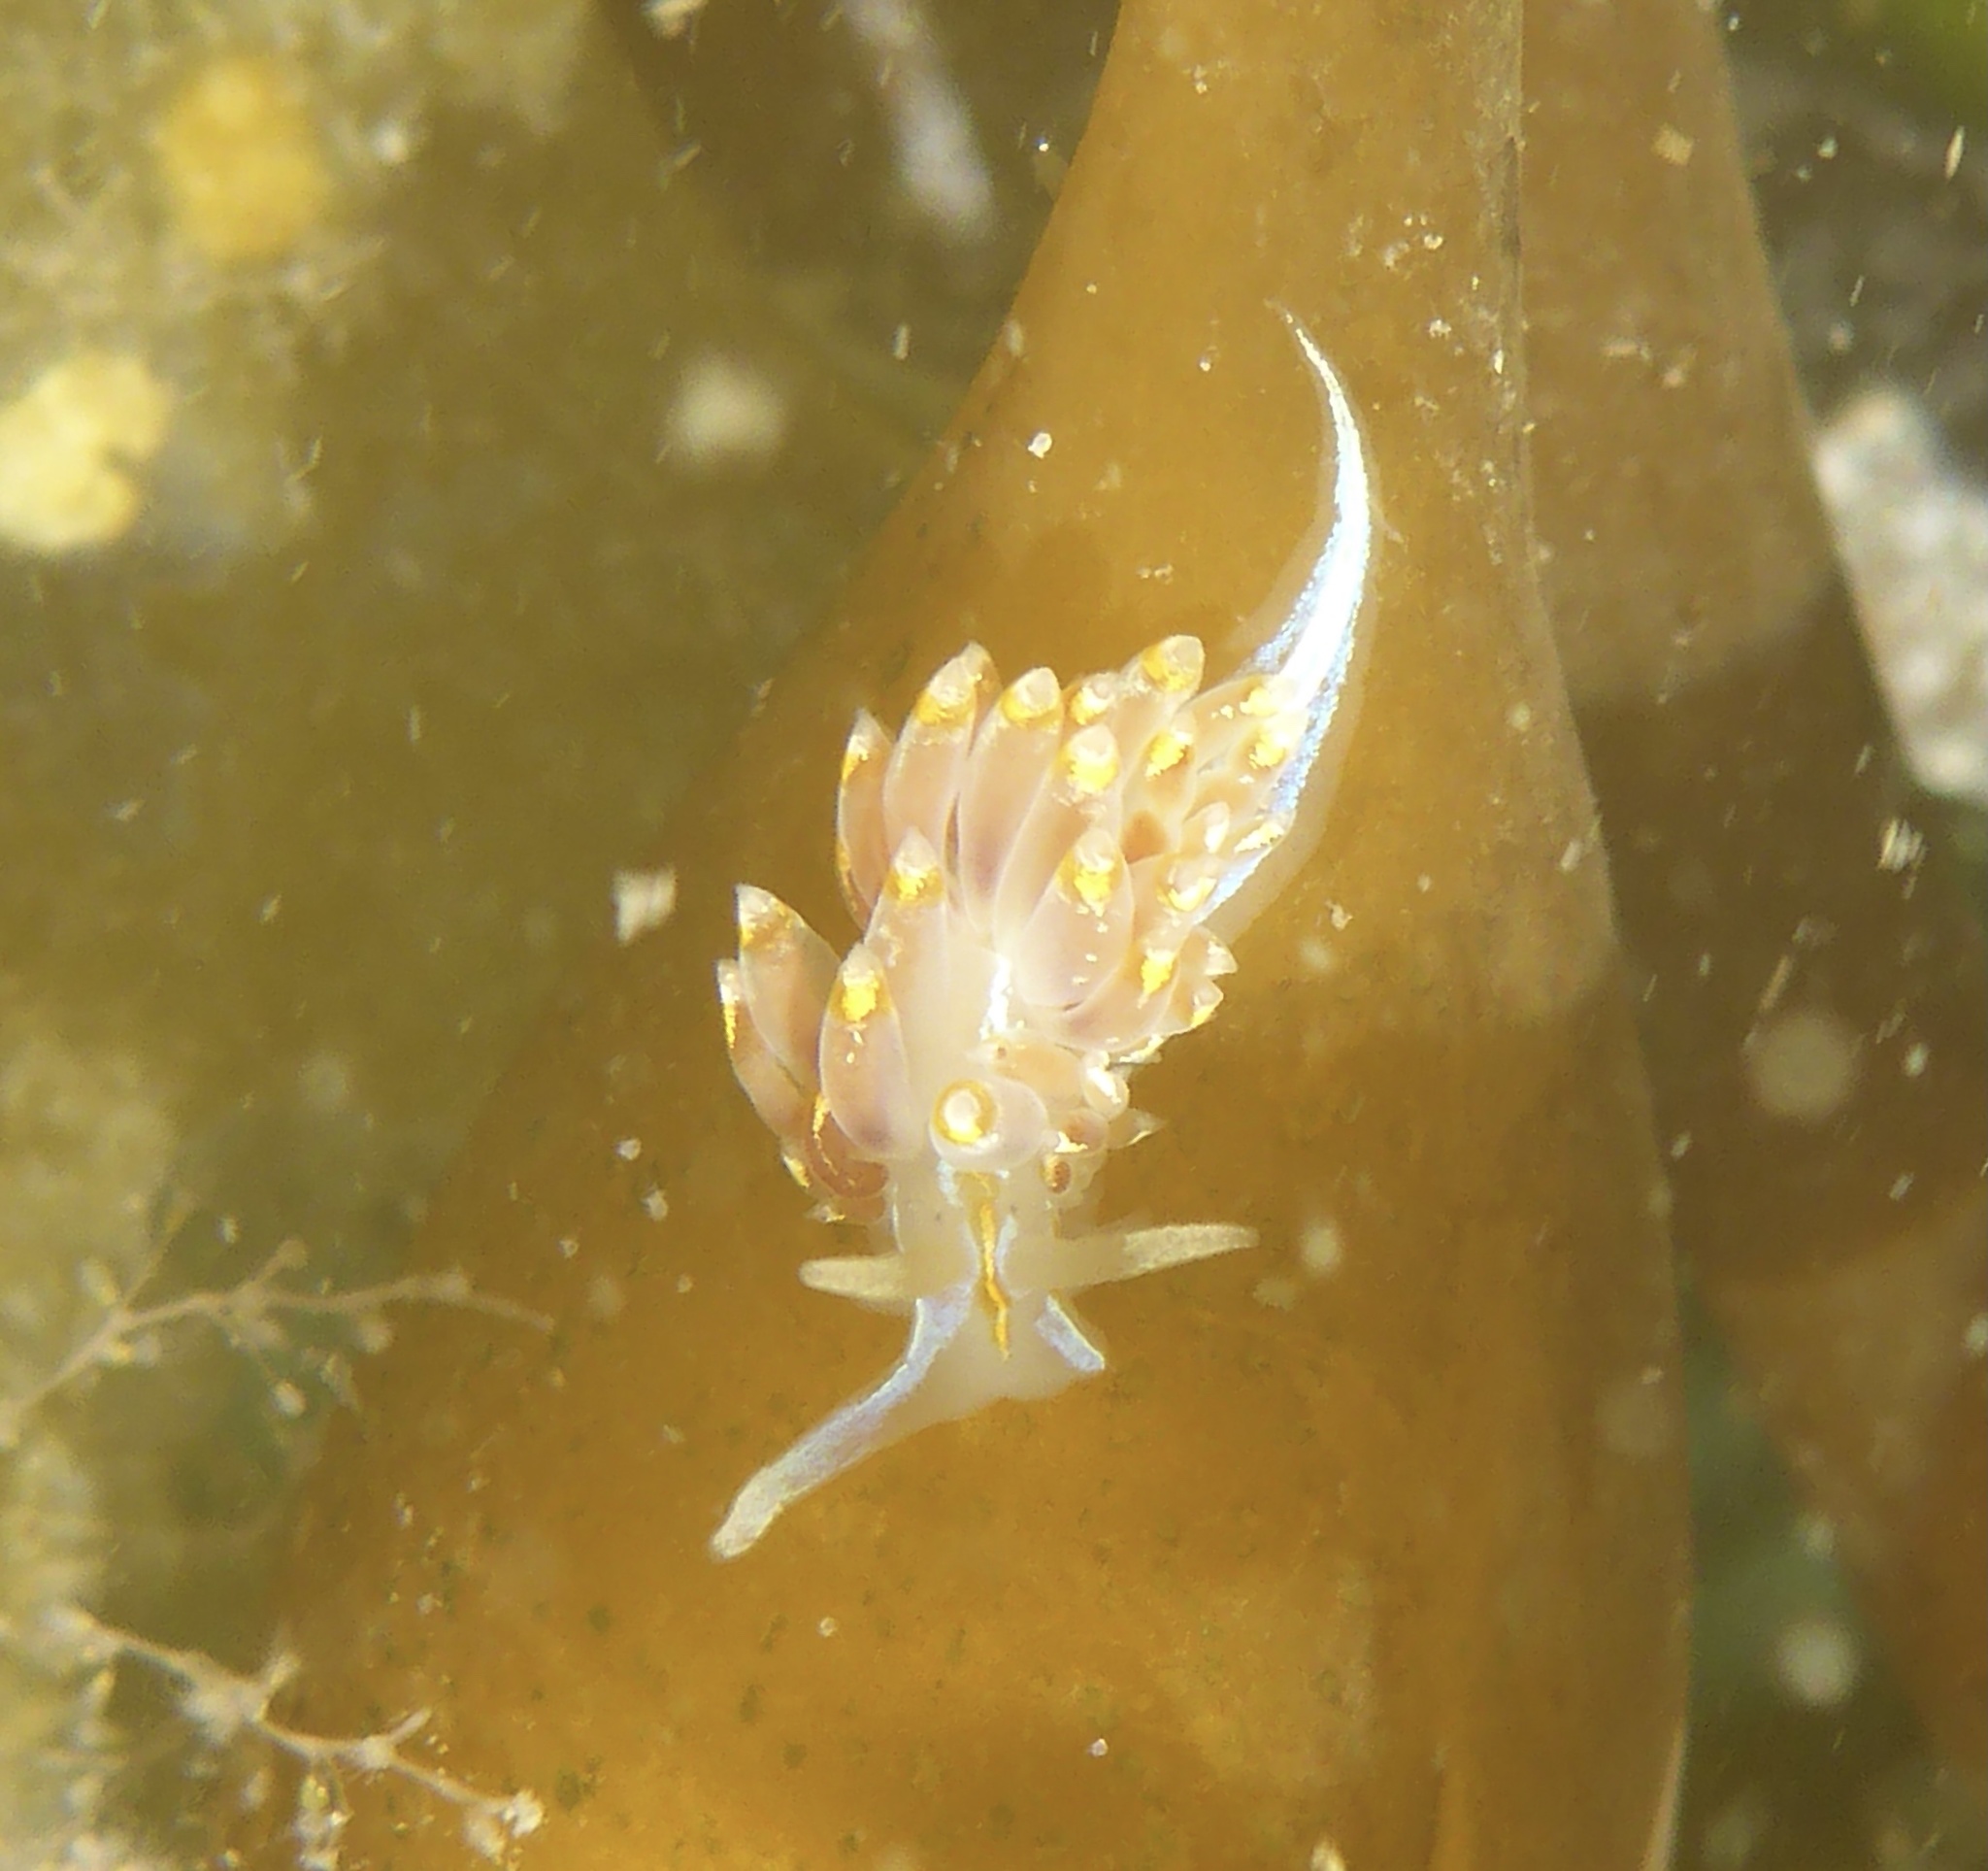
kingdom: Animalia
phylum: Mollusca
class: Gastropoda
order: Nudibranchia
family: Myrrhinidae
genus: Hermissenda
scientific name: Hermissenda opalescens
